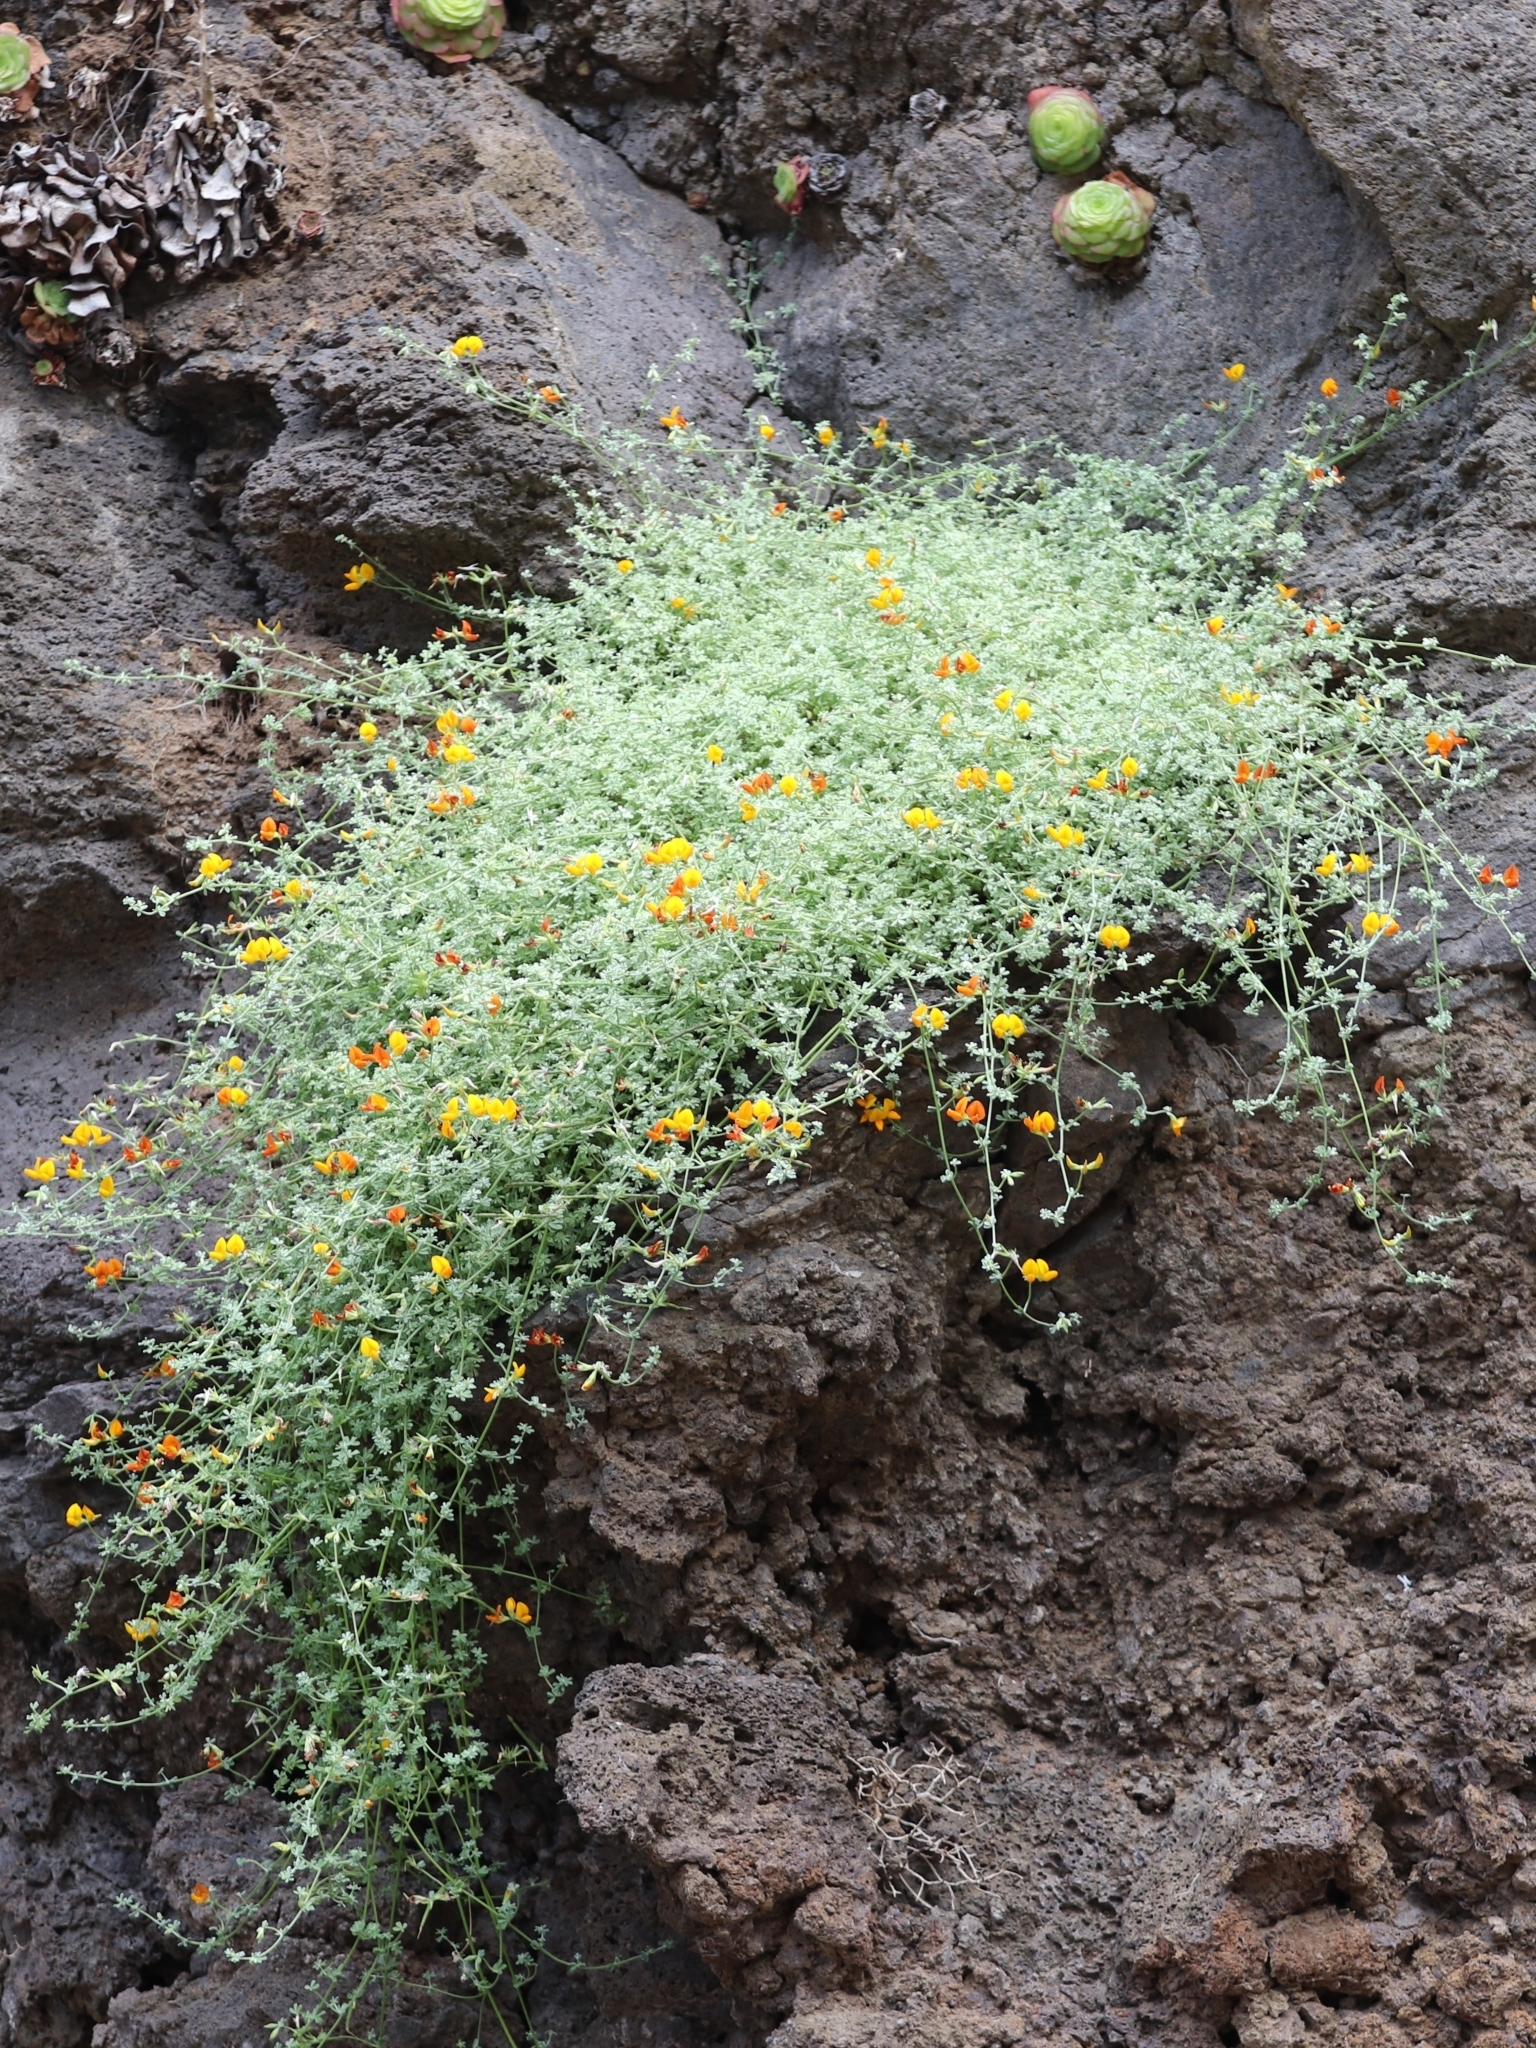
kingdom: Plantae
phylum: Tracheophyta
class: Magnoliopsida
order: Fabales
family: Fabaceae
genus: Lotus
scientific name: Lotus glaucus
